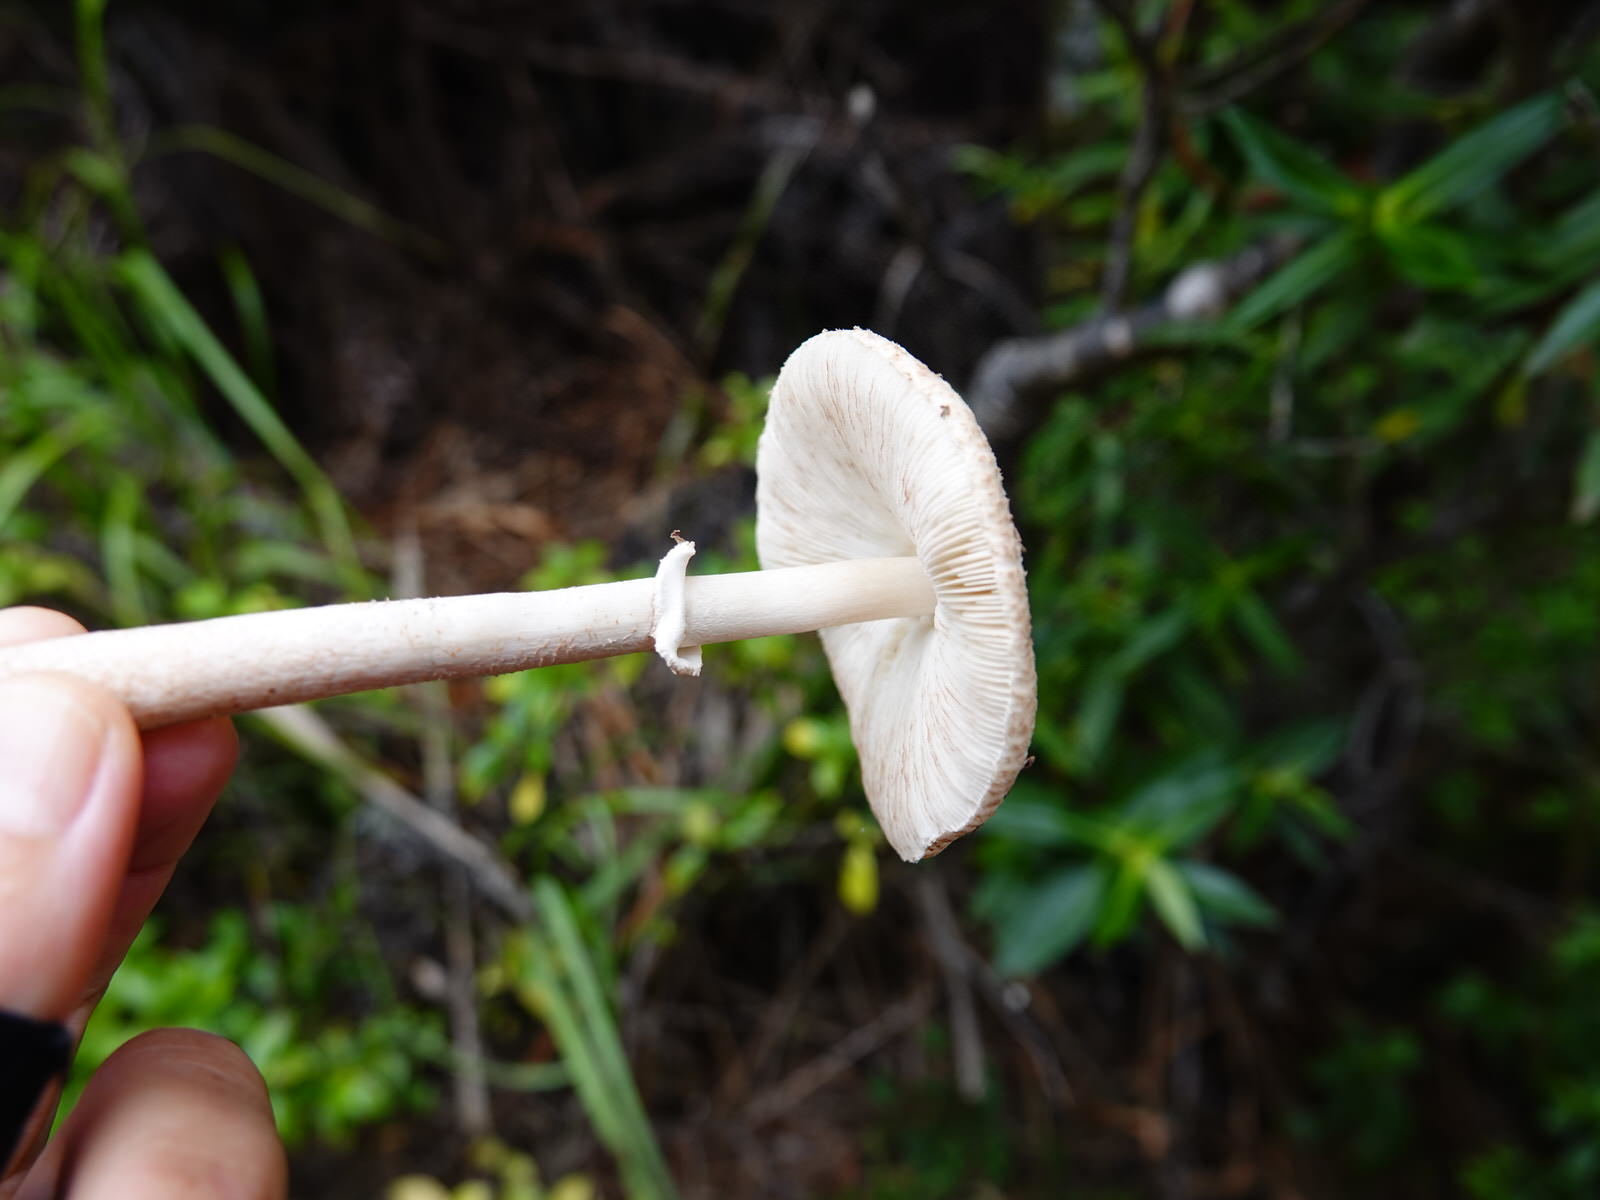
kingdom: Fungi
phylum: Basidiomycota
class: Agaricomycetes
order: Agaricales
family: Agaricaceae
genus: Macrolepiota
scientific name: Macrolepiota clelandii
